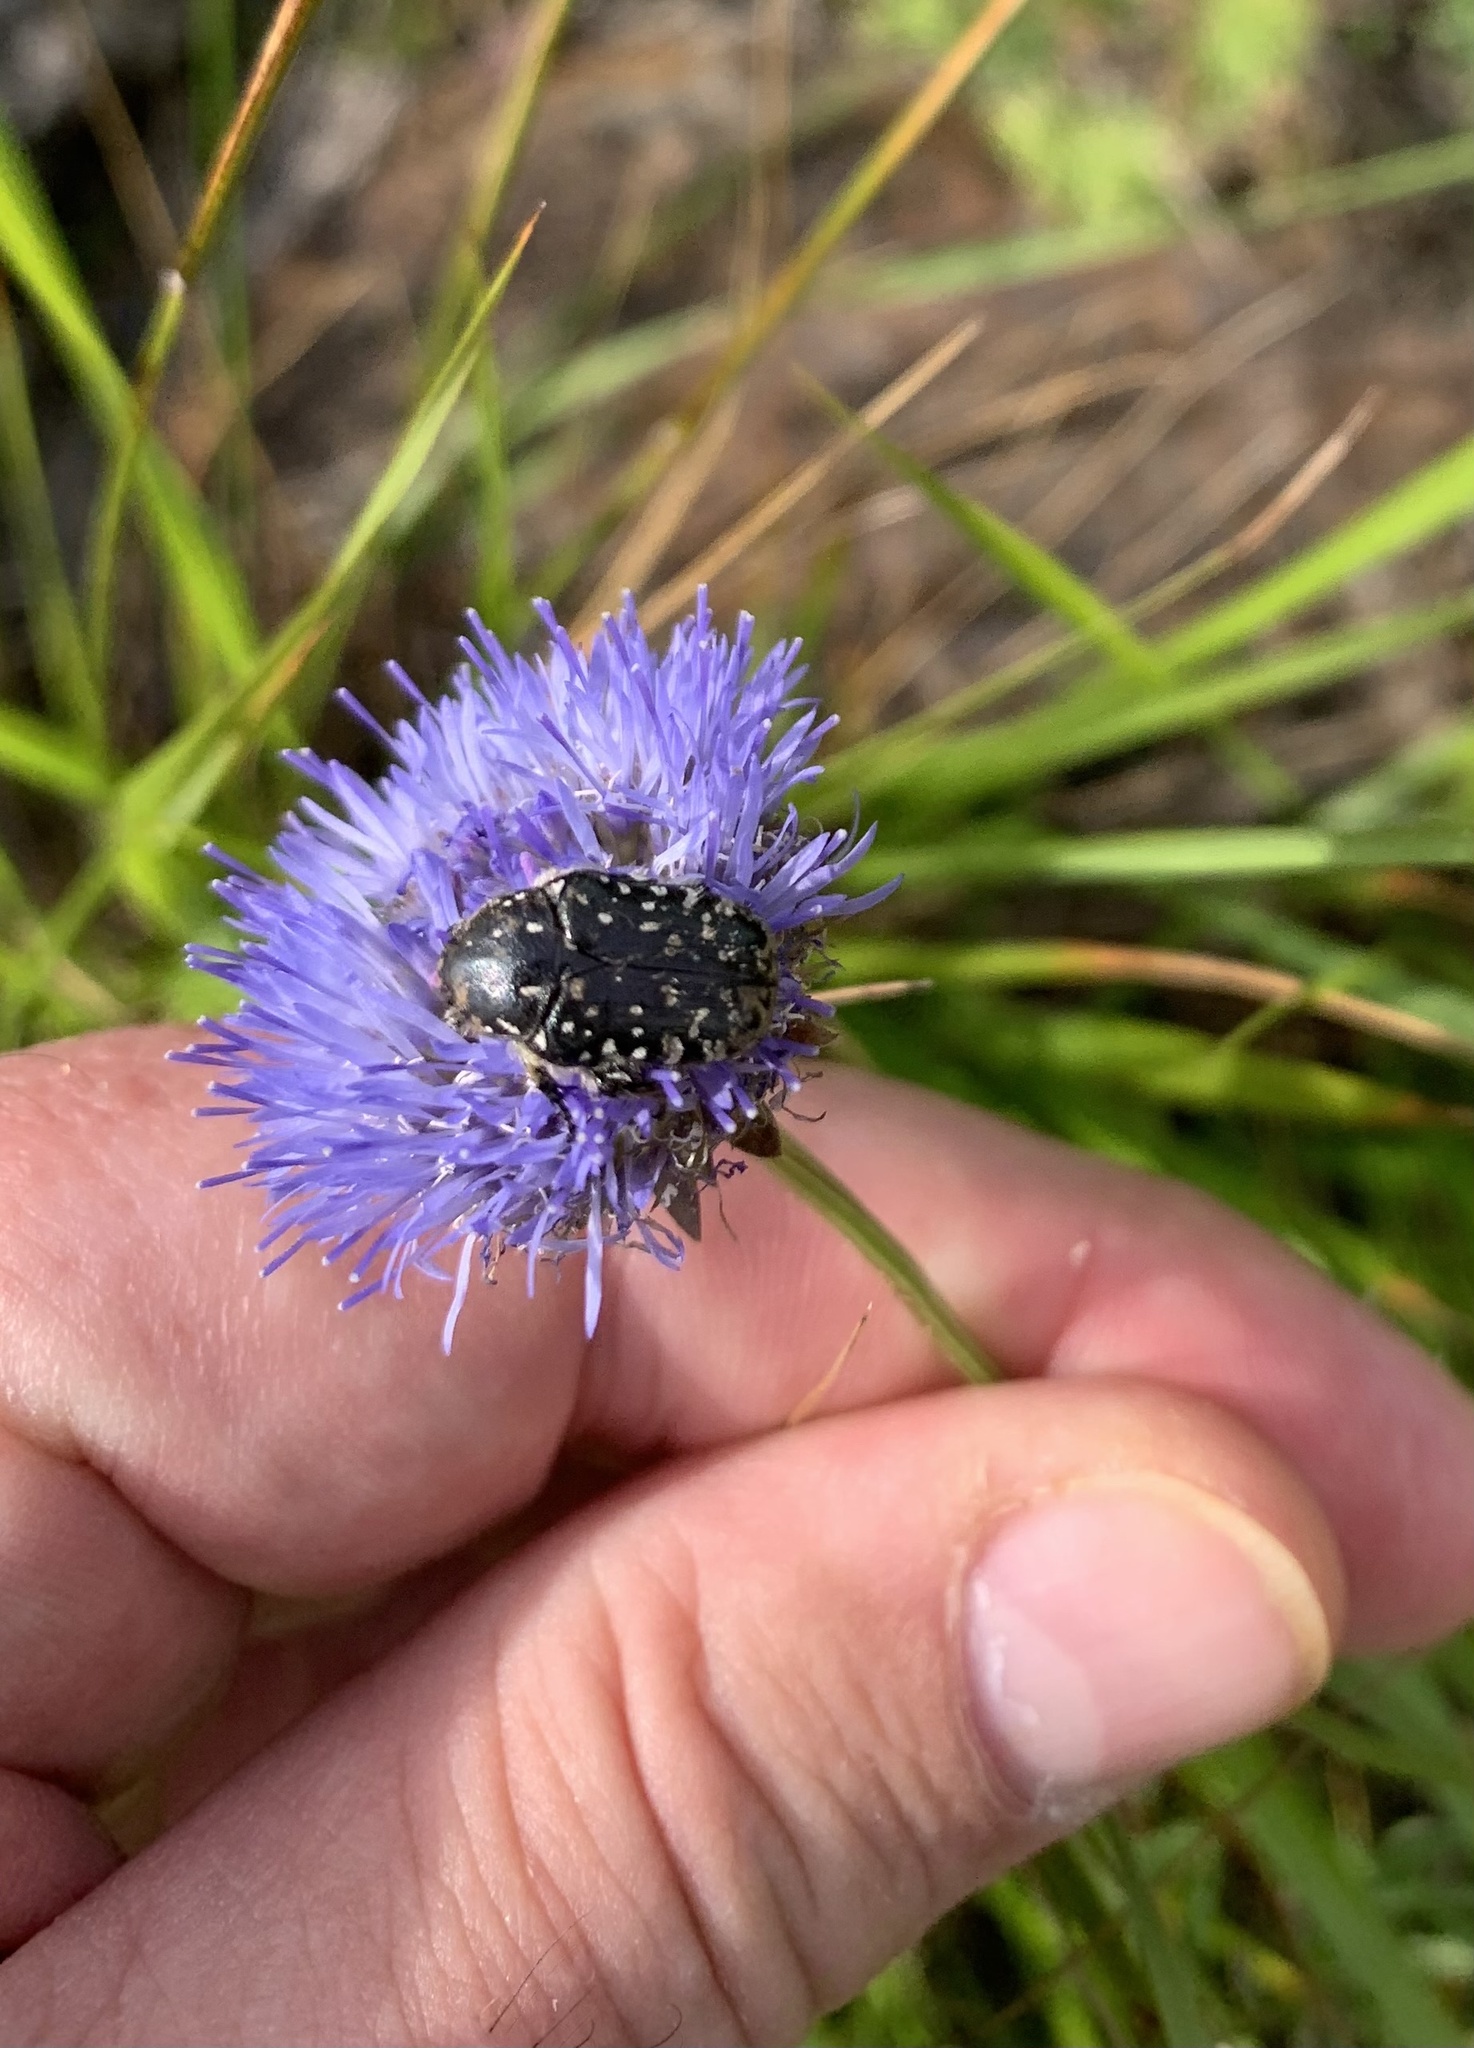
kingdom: Animalia
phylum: Arthropoda
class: Insecta
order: Coleoptera
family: Scarabaeidae
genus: Oxythyrea
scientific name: Oxythyrea funesta
